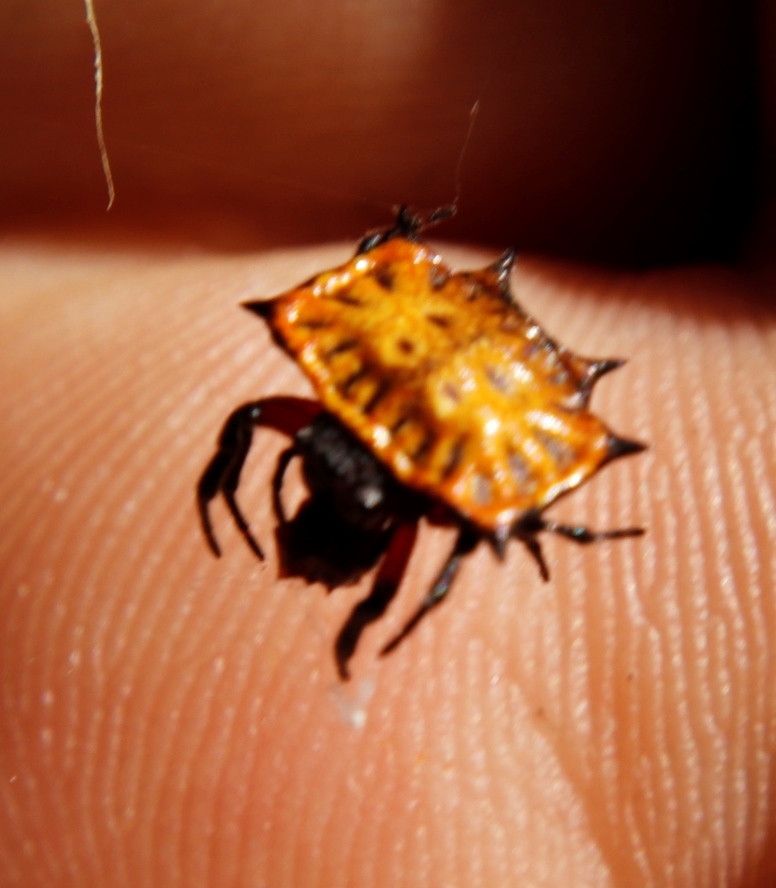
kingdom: Animalia
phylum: Arthropoda
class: Arachnida
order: Araneae
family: Araneidae
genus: Isoxya
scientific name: Isoxya tabulata
